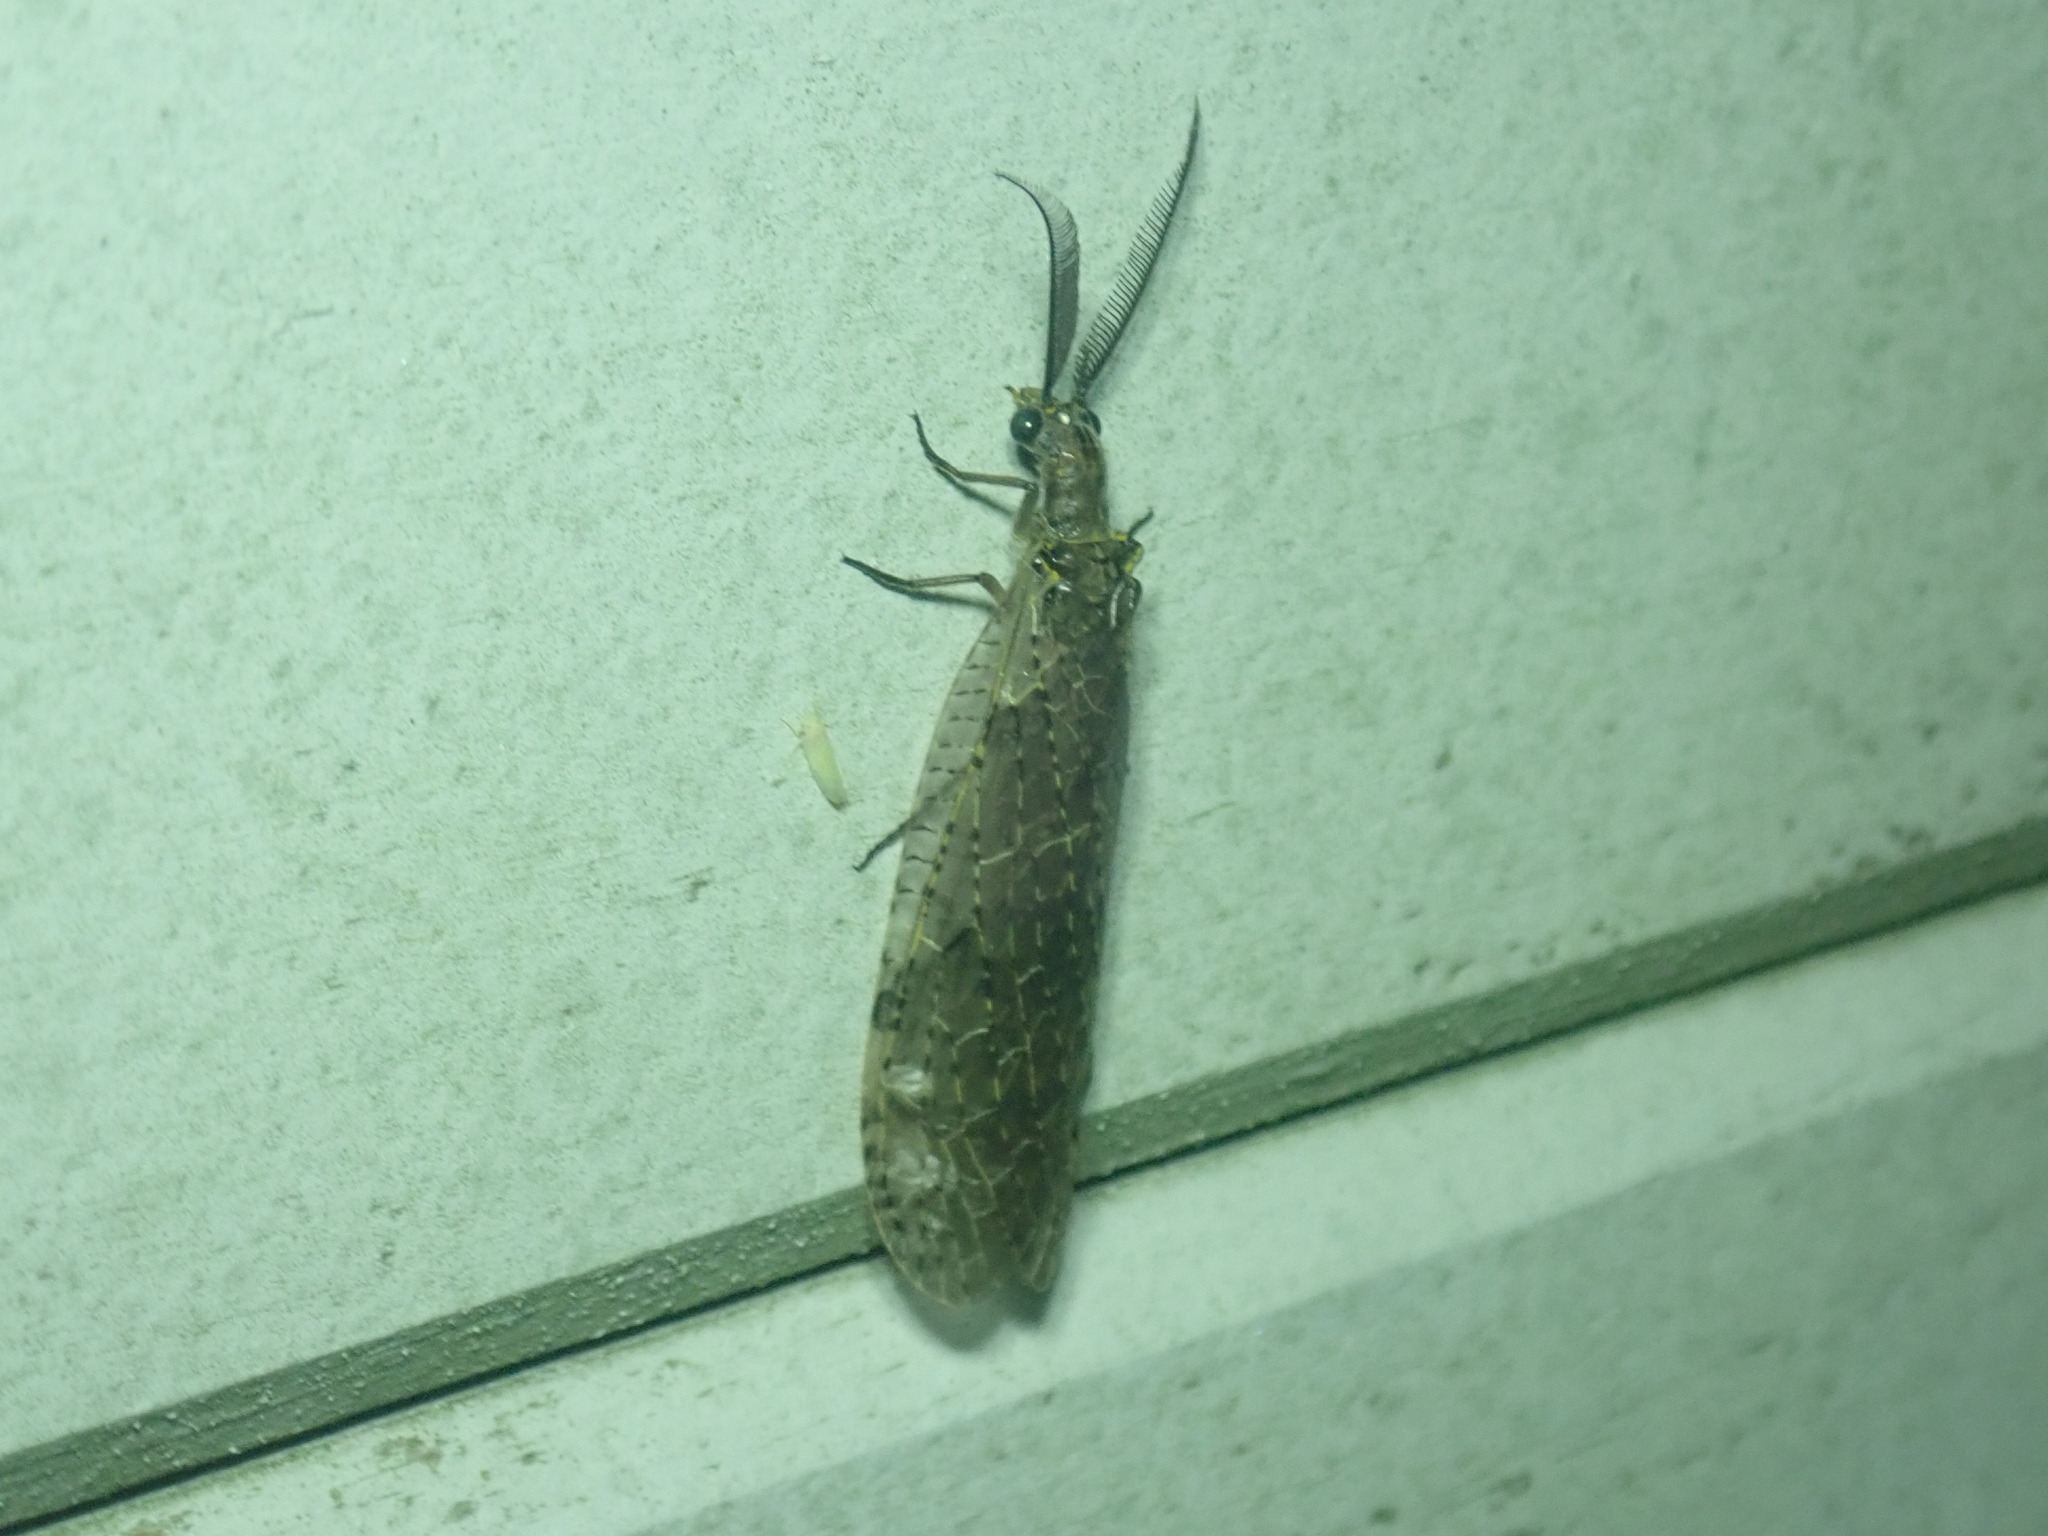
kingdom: Animalia
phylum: Arthropoda
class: Insecta
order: Megaloptera
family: Corydalidae
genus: Chauliodes
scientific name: Chauliodes rastricornis
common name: Spring fishfly
